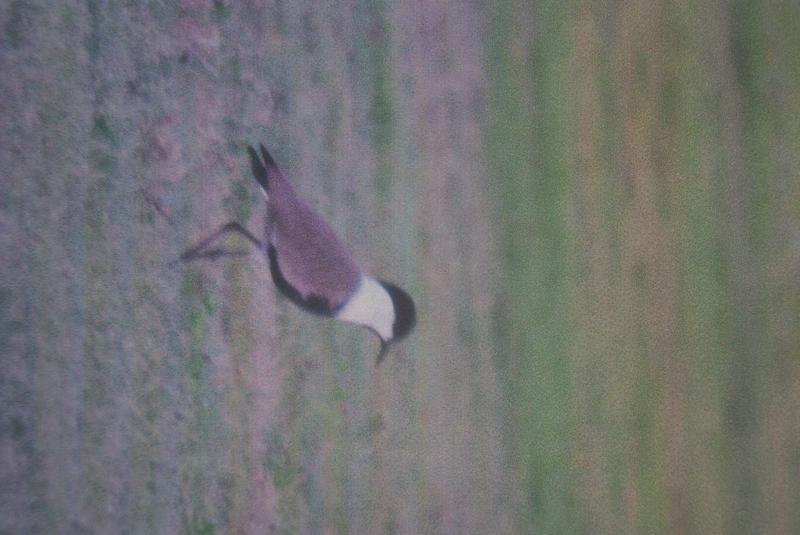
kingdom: Animalia
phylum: Chordata
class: Aves
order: Charadriiformes
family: Charadriidae
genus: Vanellus
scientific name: Vanellus spinosus
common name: Spur-winged lapwing
